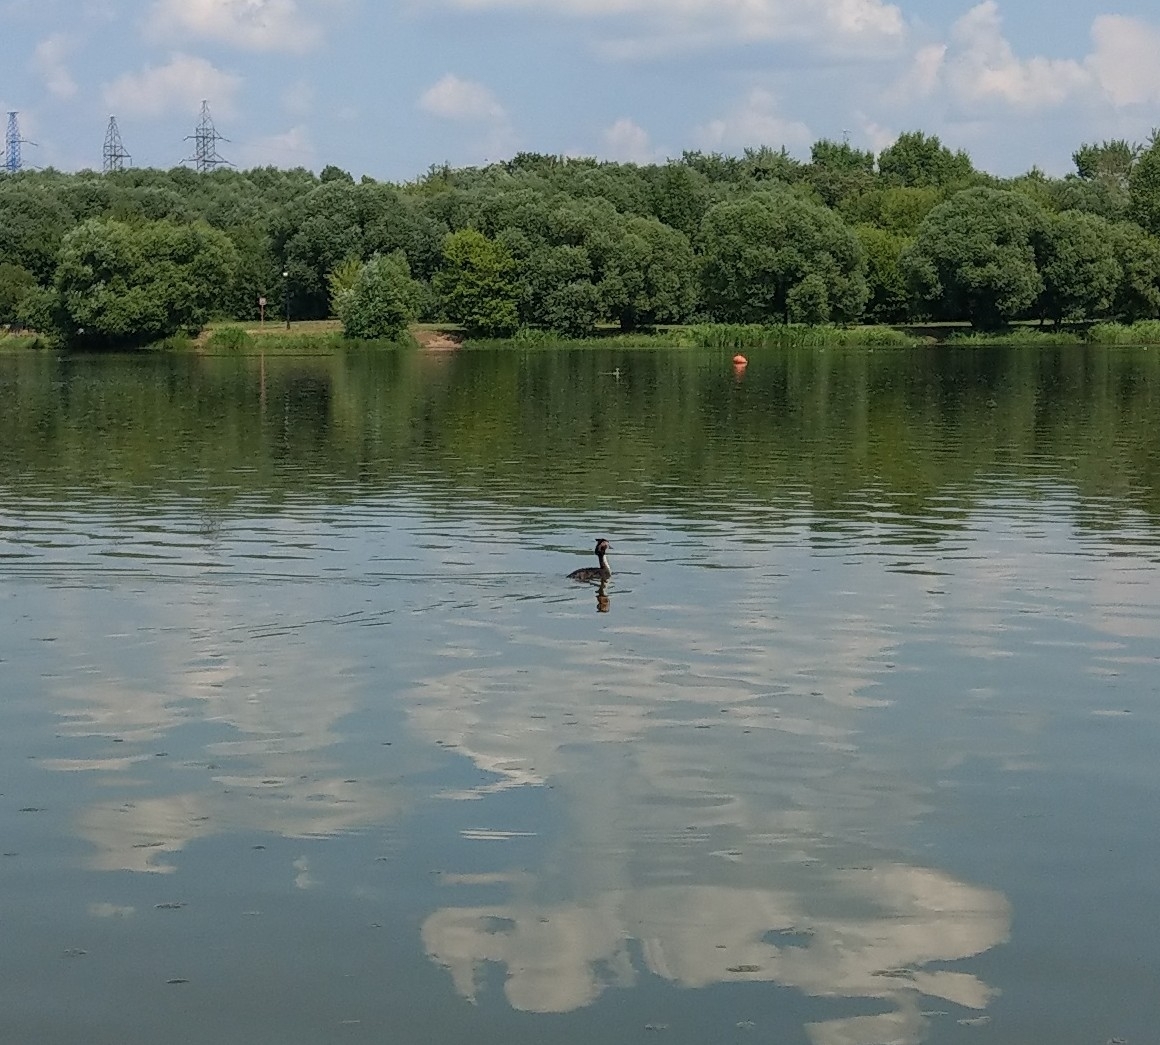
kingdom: Animalia
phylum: Chordata
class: Aves
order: Podicipediformes
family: Podicipedidae
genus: Podiceps
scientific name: Podiceps cristatus
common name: Great crested grebe
